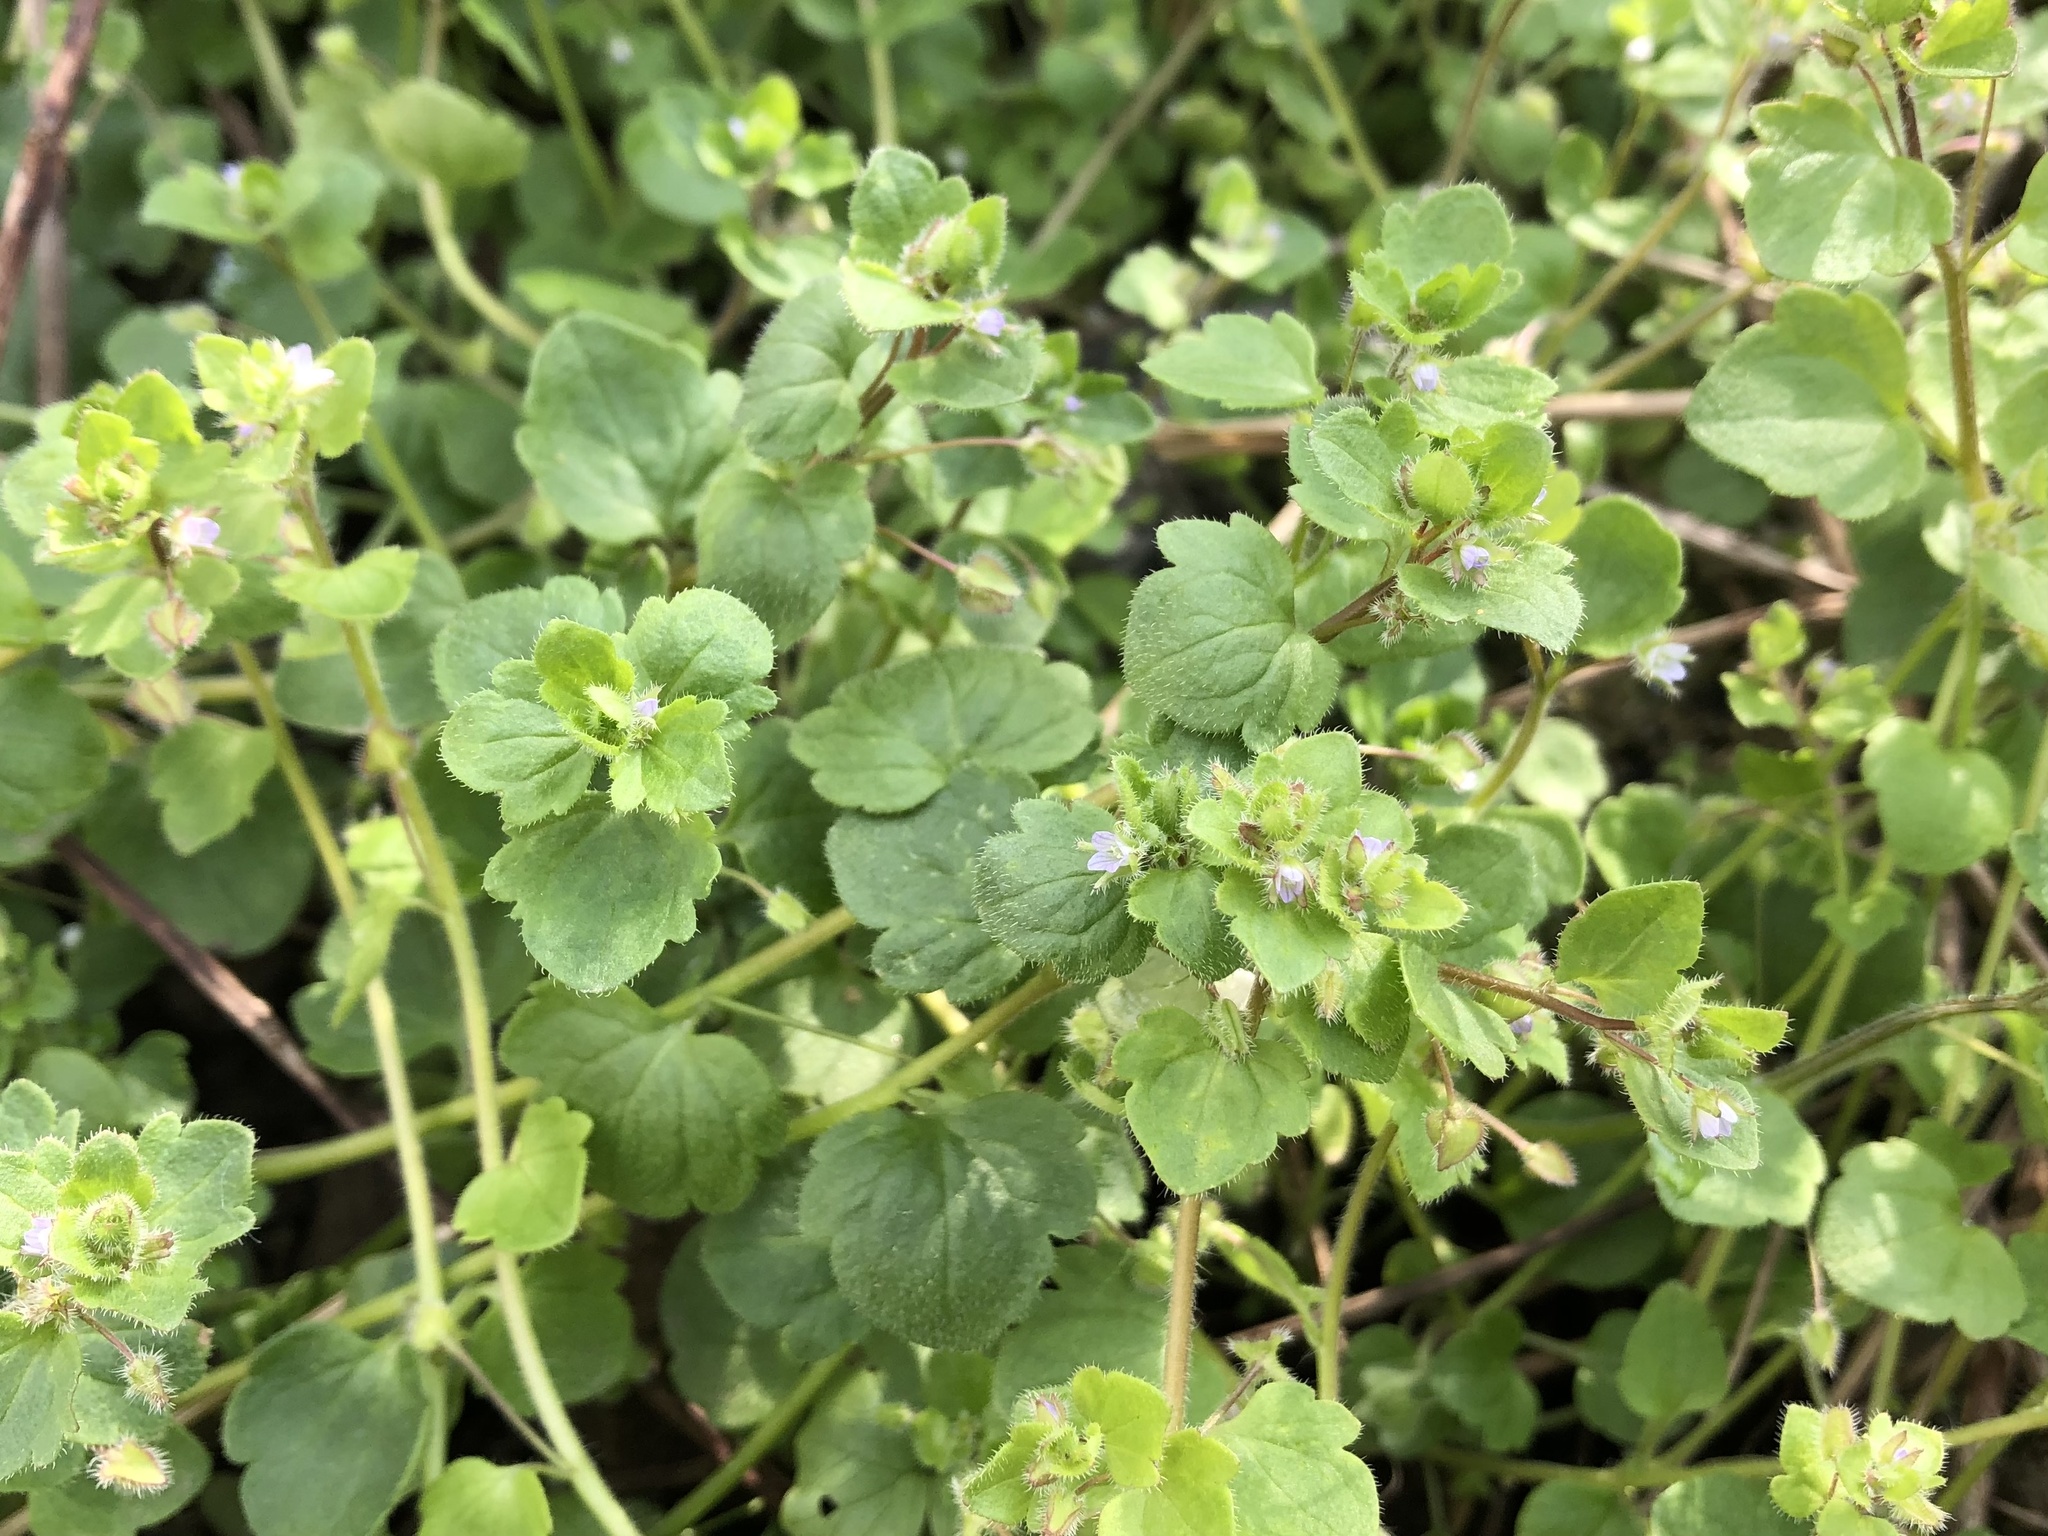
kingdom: Plantae
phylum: Tracheophyta
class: Magnoliopsida
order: Lamiales
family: Plantaginaceae
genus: Veronica
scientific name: Veronica sublobata
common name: False ivy-leaved speedwell
